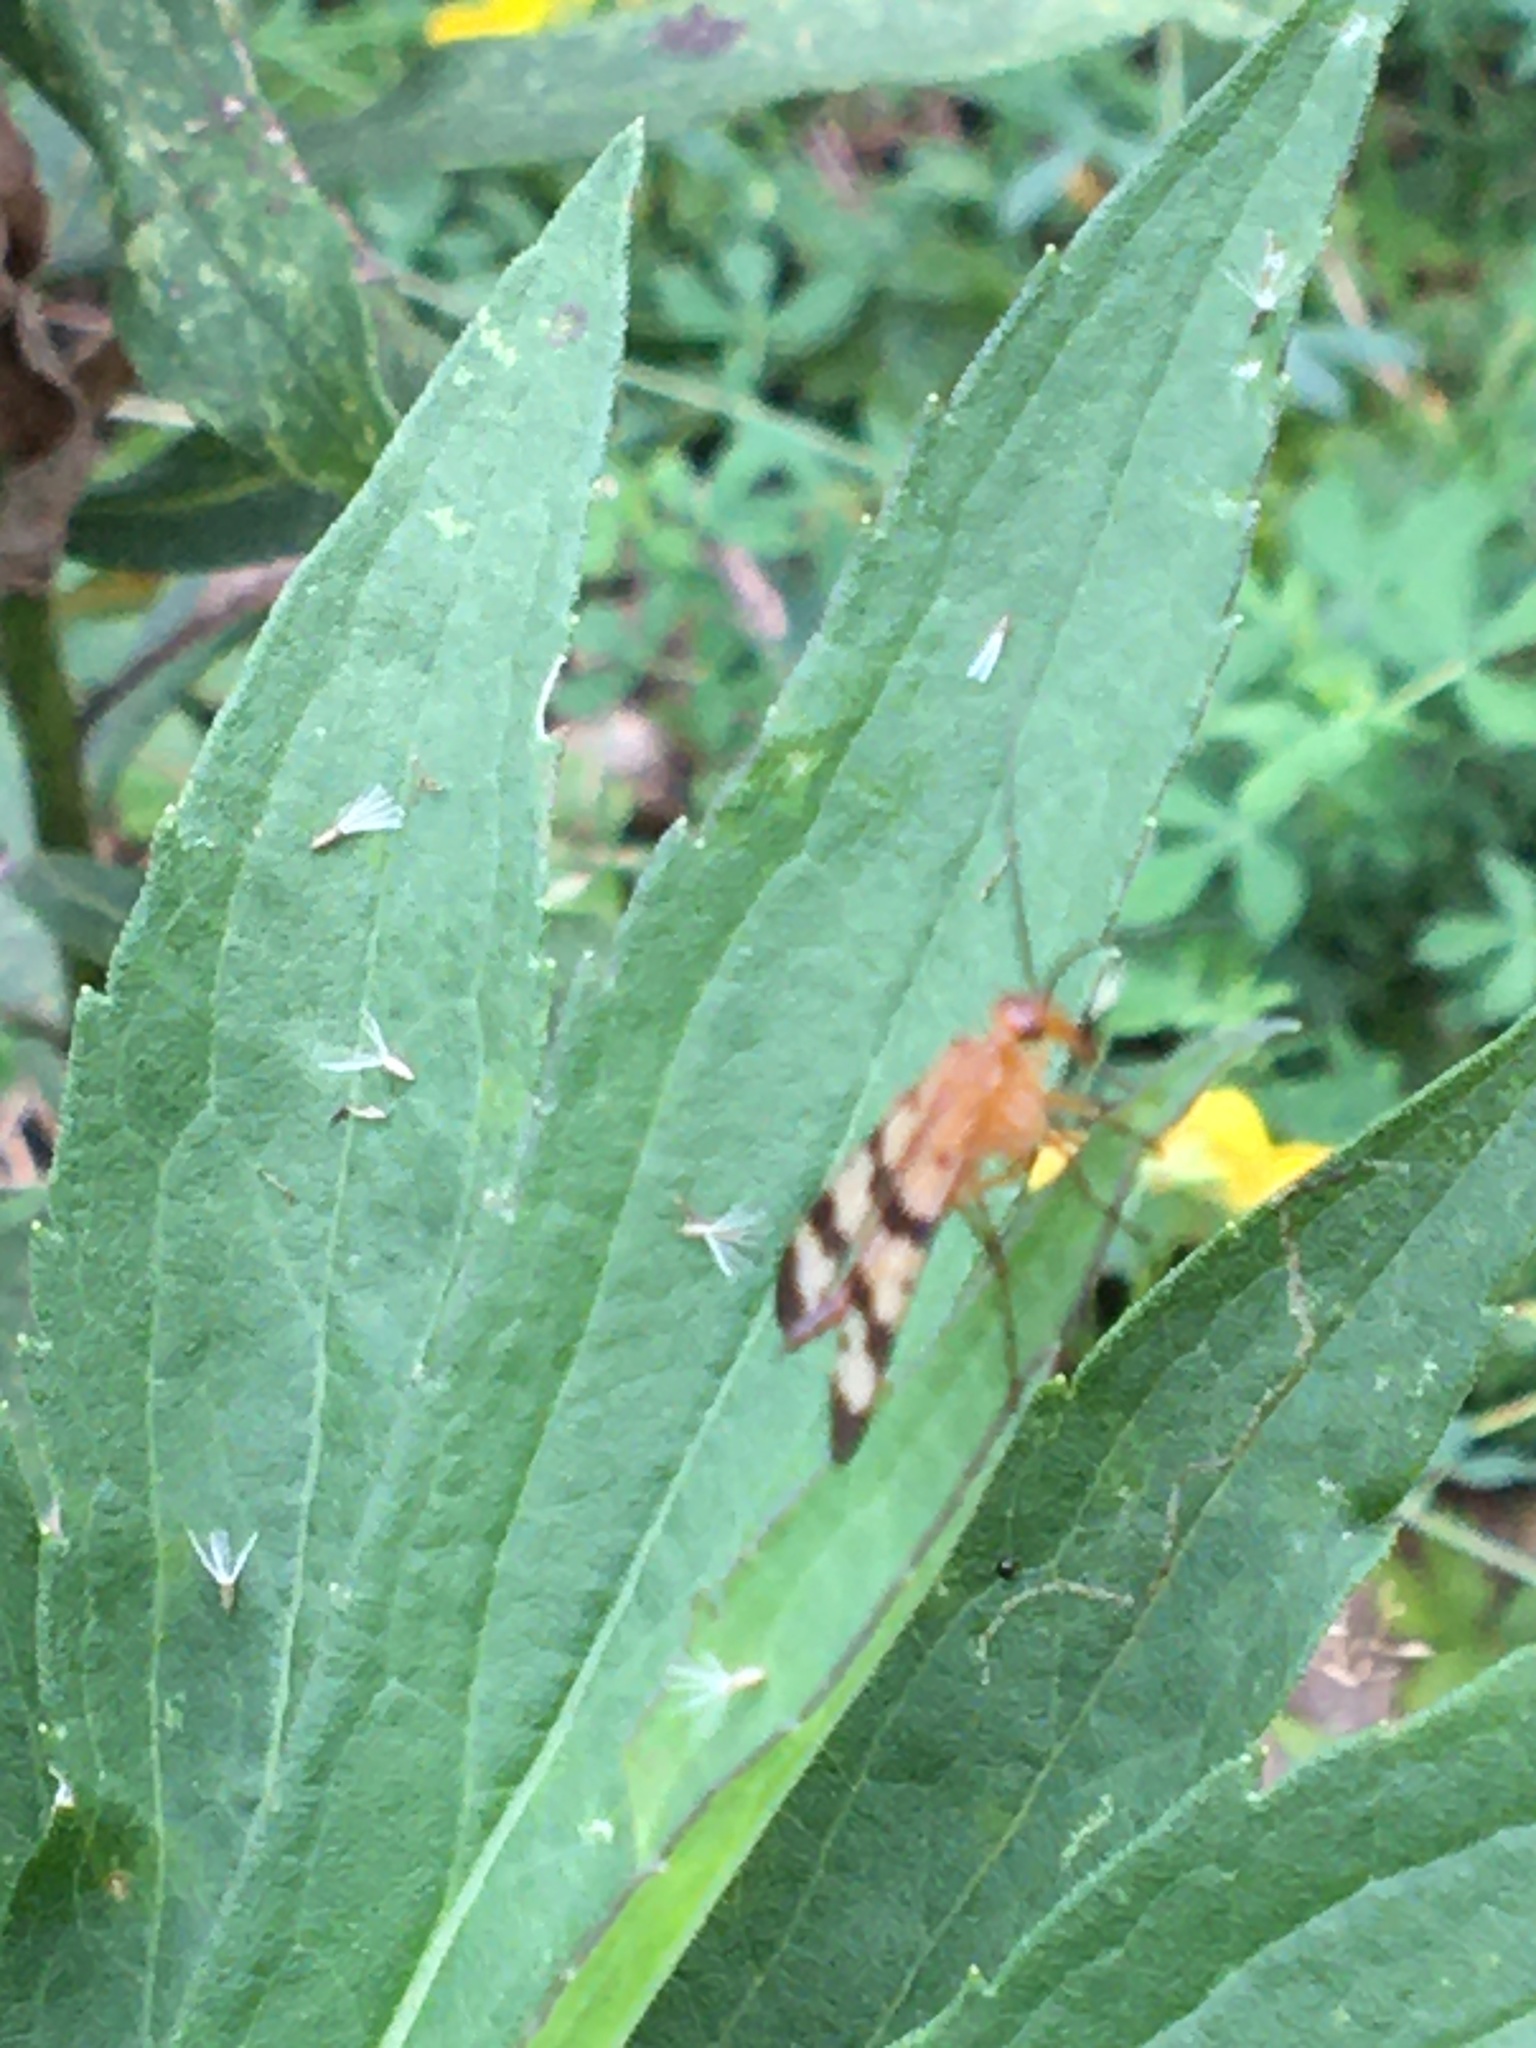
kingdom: Animalia
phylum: Arthropoda
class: Insecta
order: Mecoptera
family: Panorpidae
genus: Panorpa
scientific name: Panorpa
